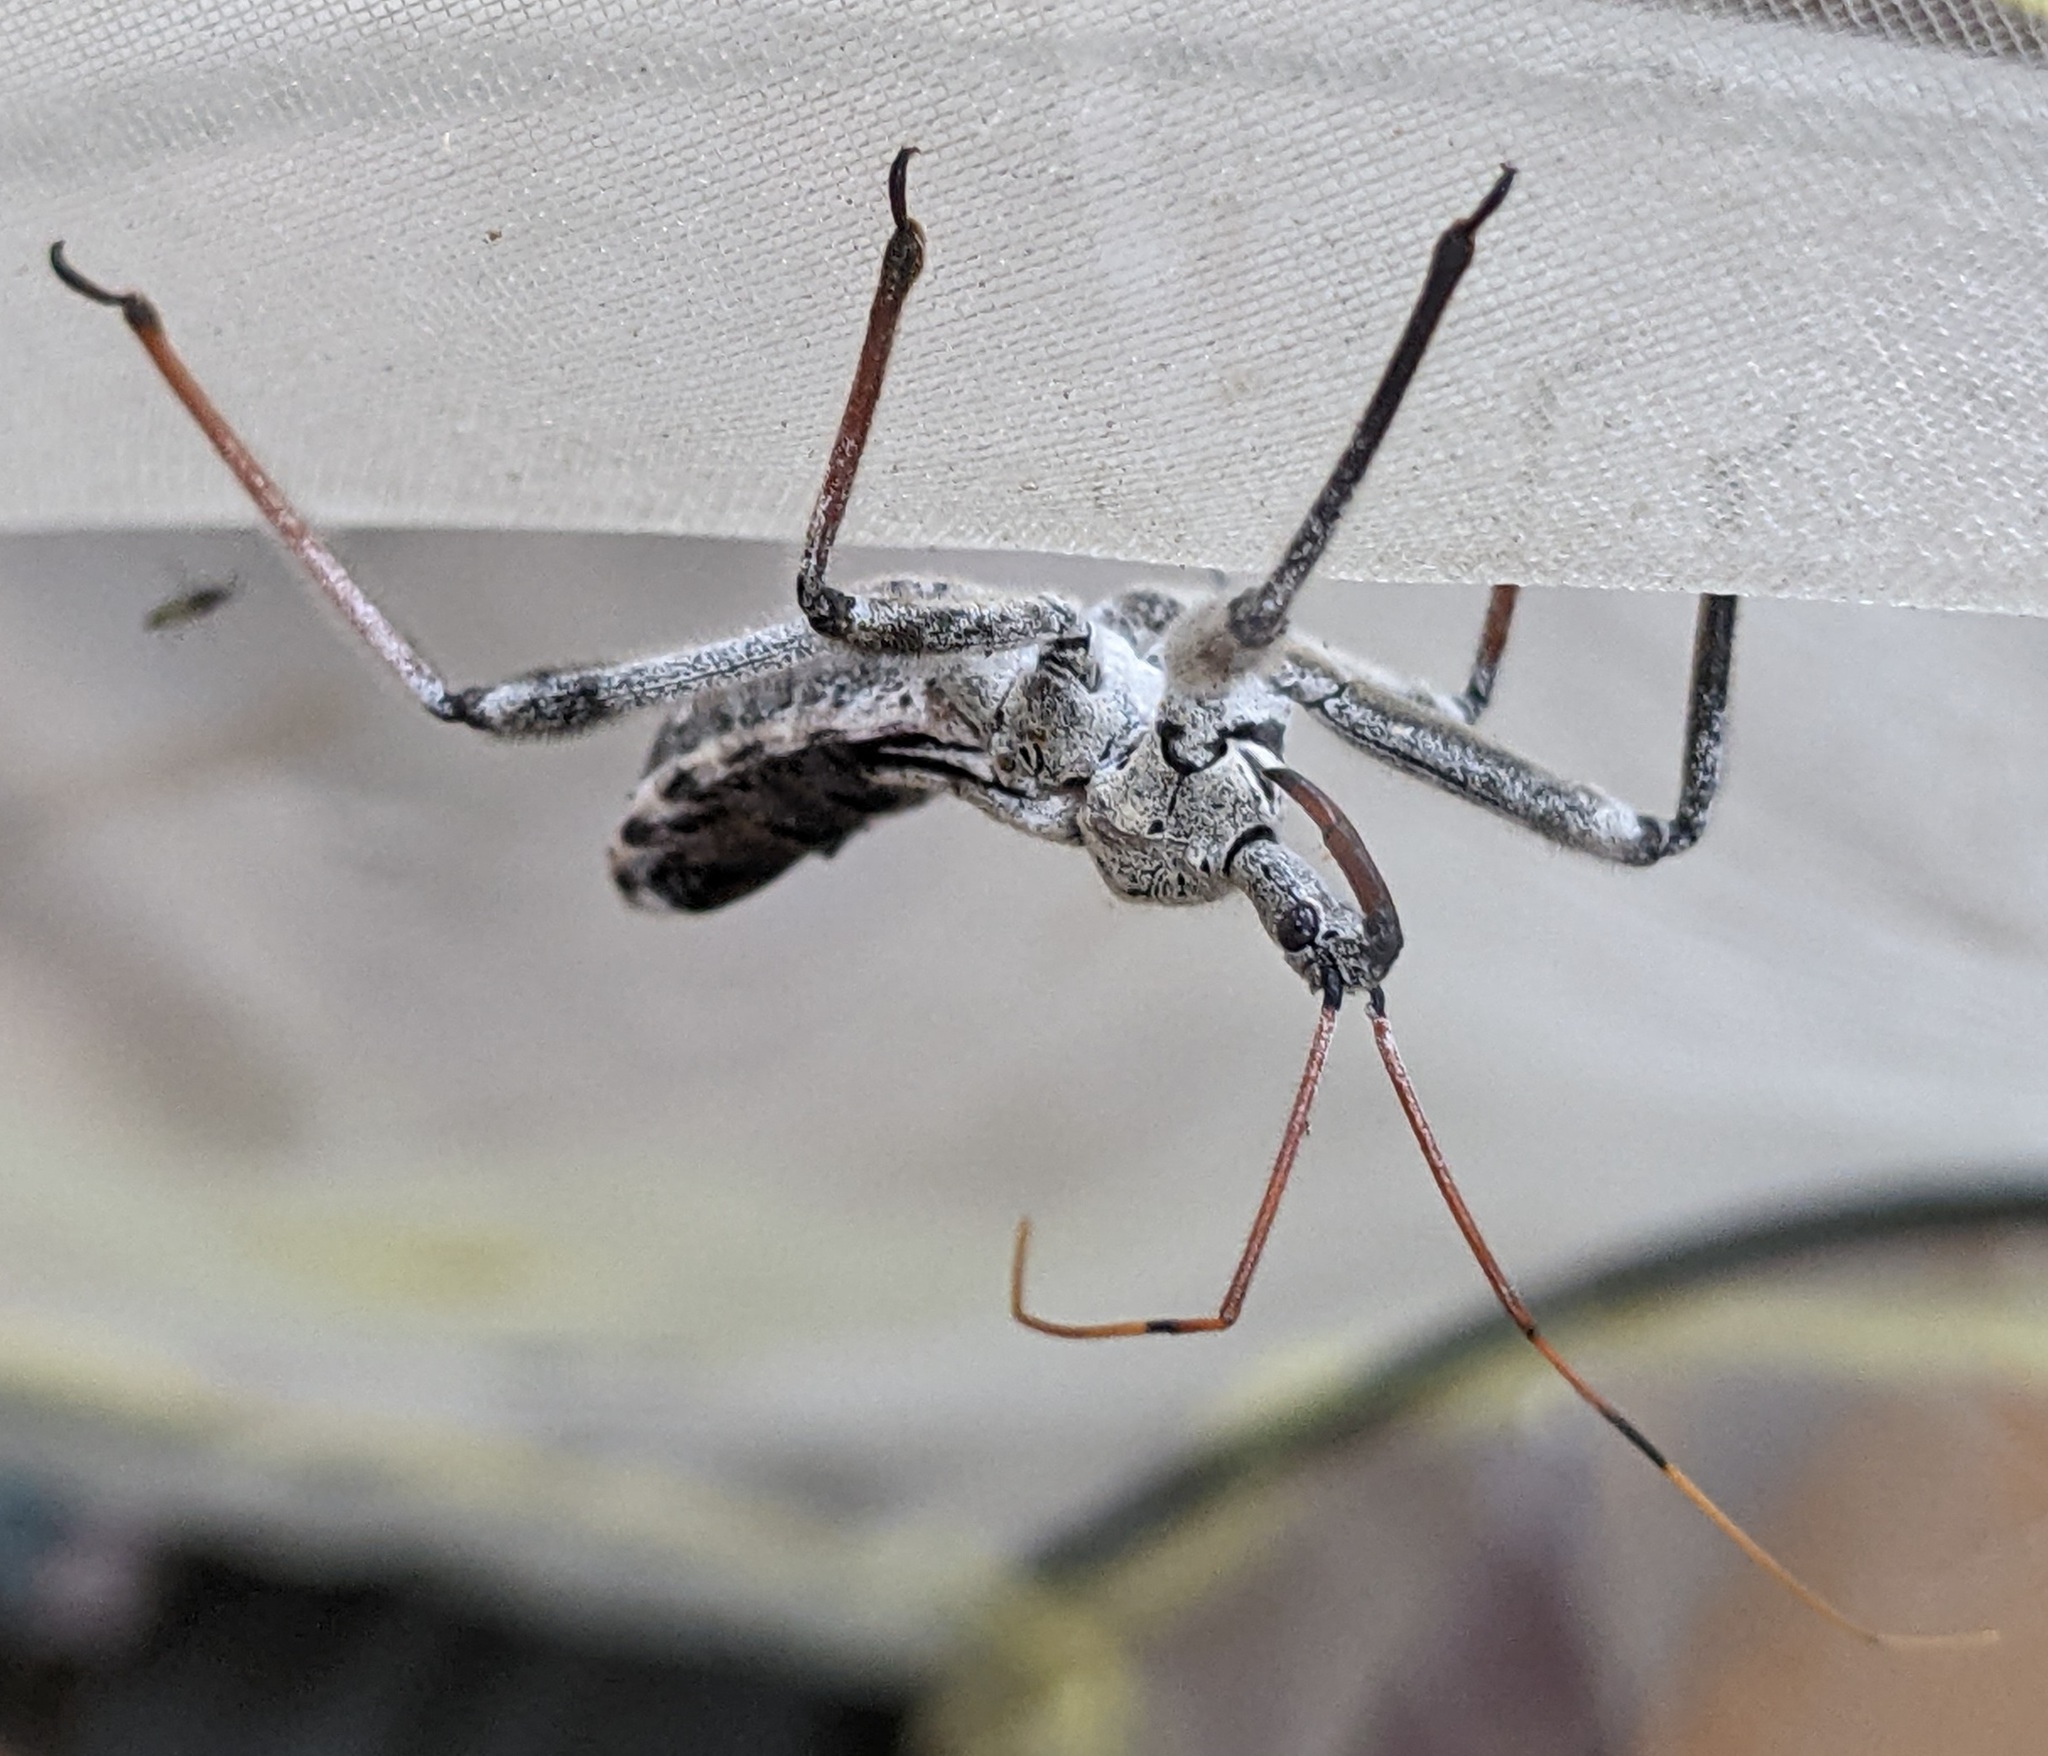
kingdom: Animalia
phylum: Arthropoda
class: Insecta
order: Hemiptera
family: Reduviidae
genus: Arilus
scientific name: Arilus cristatus
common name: North american wheel bug
